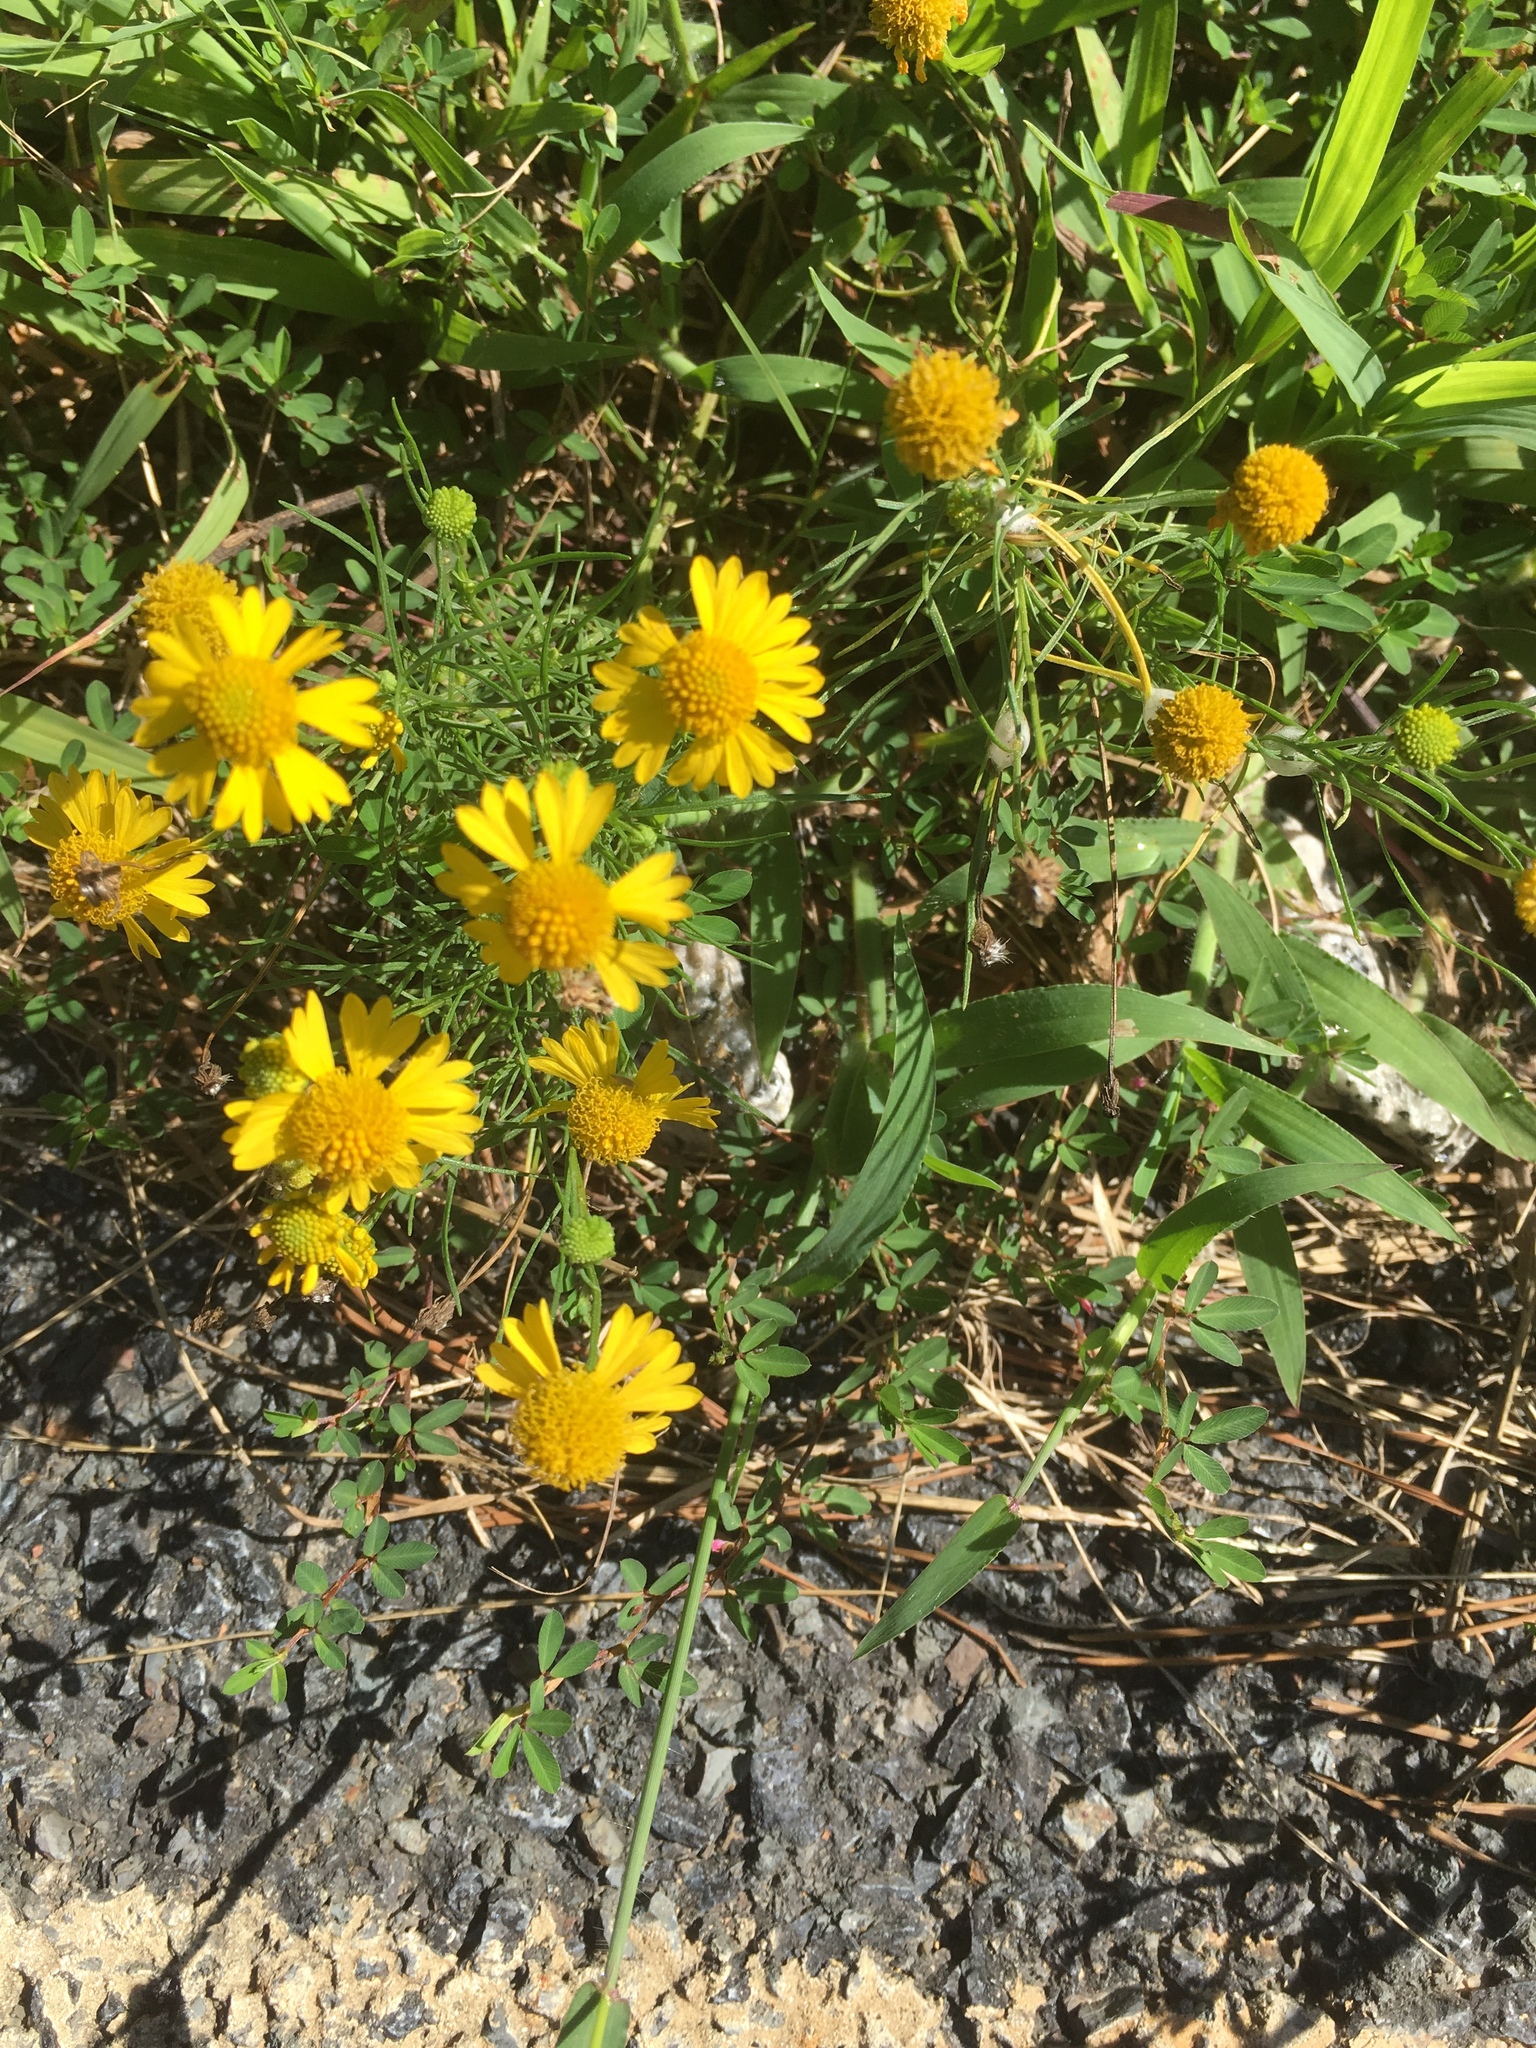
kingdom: Plantae
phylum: Tracheophyta
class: Magnoliopsida
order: Asterales
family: Asteraceae
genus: Helenium
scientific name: Helenium amarum
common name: Bitter sneezeweed
